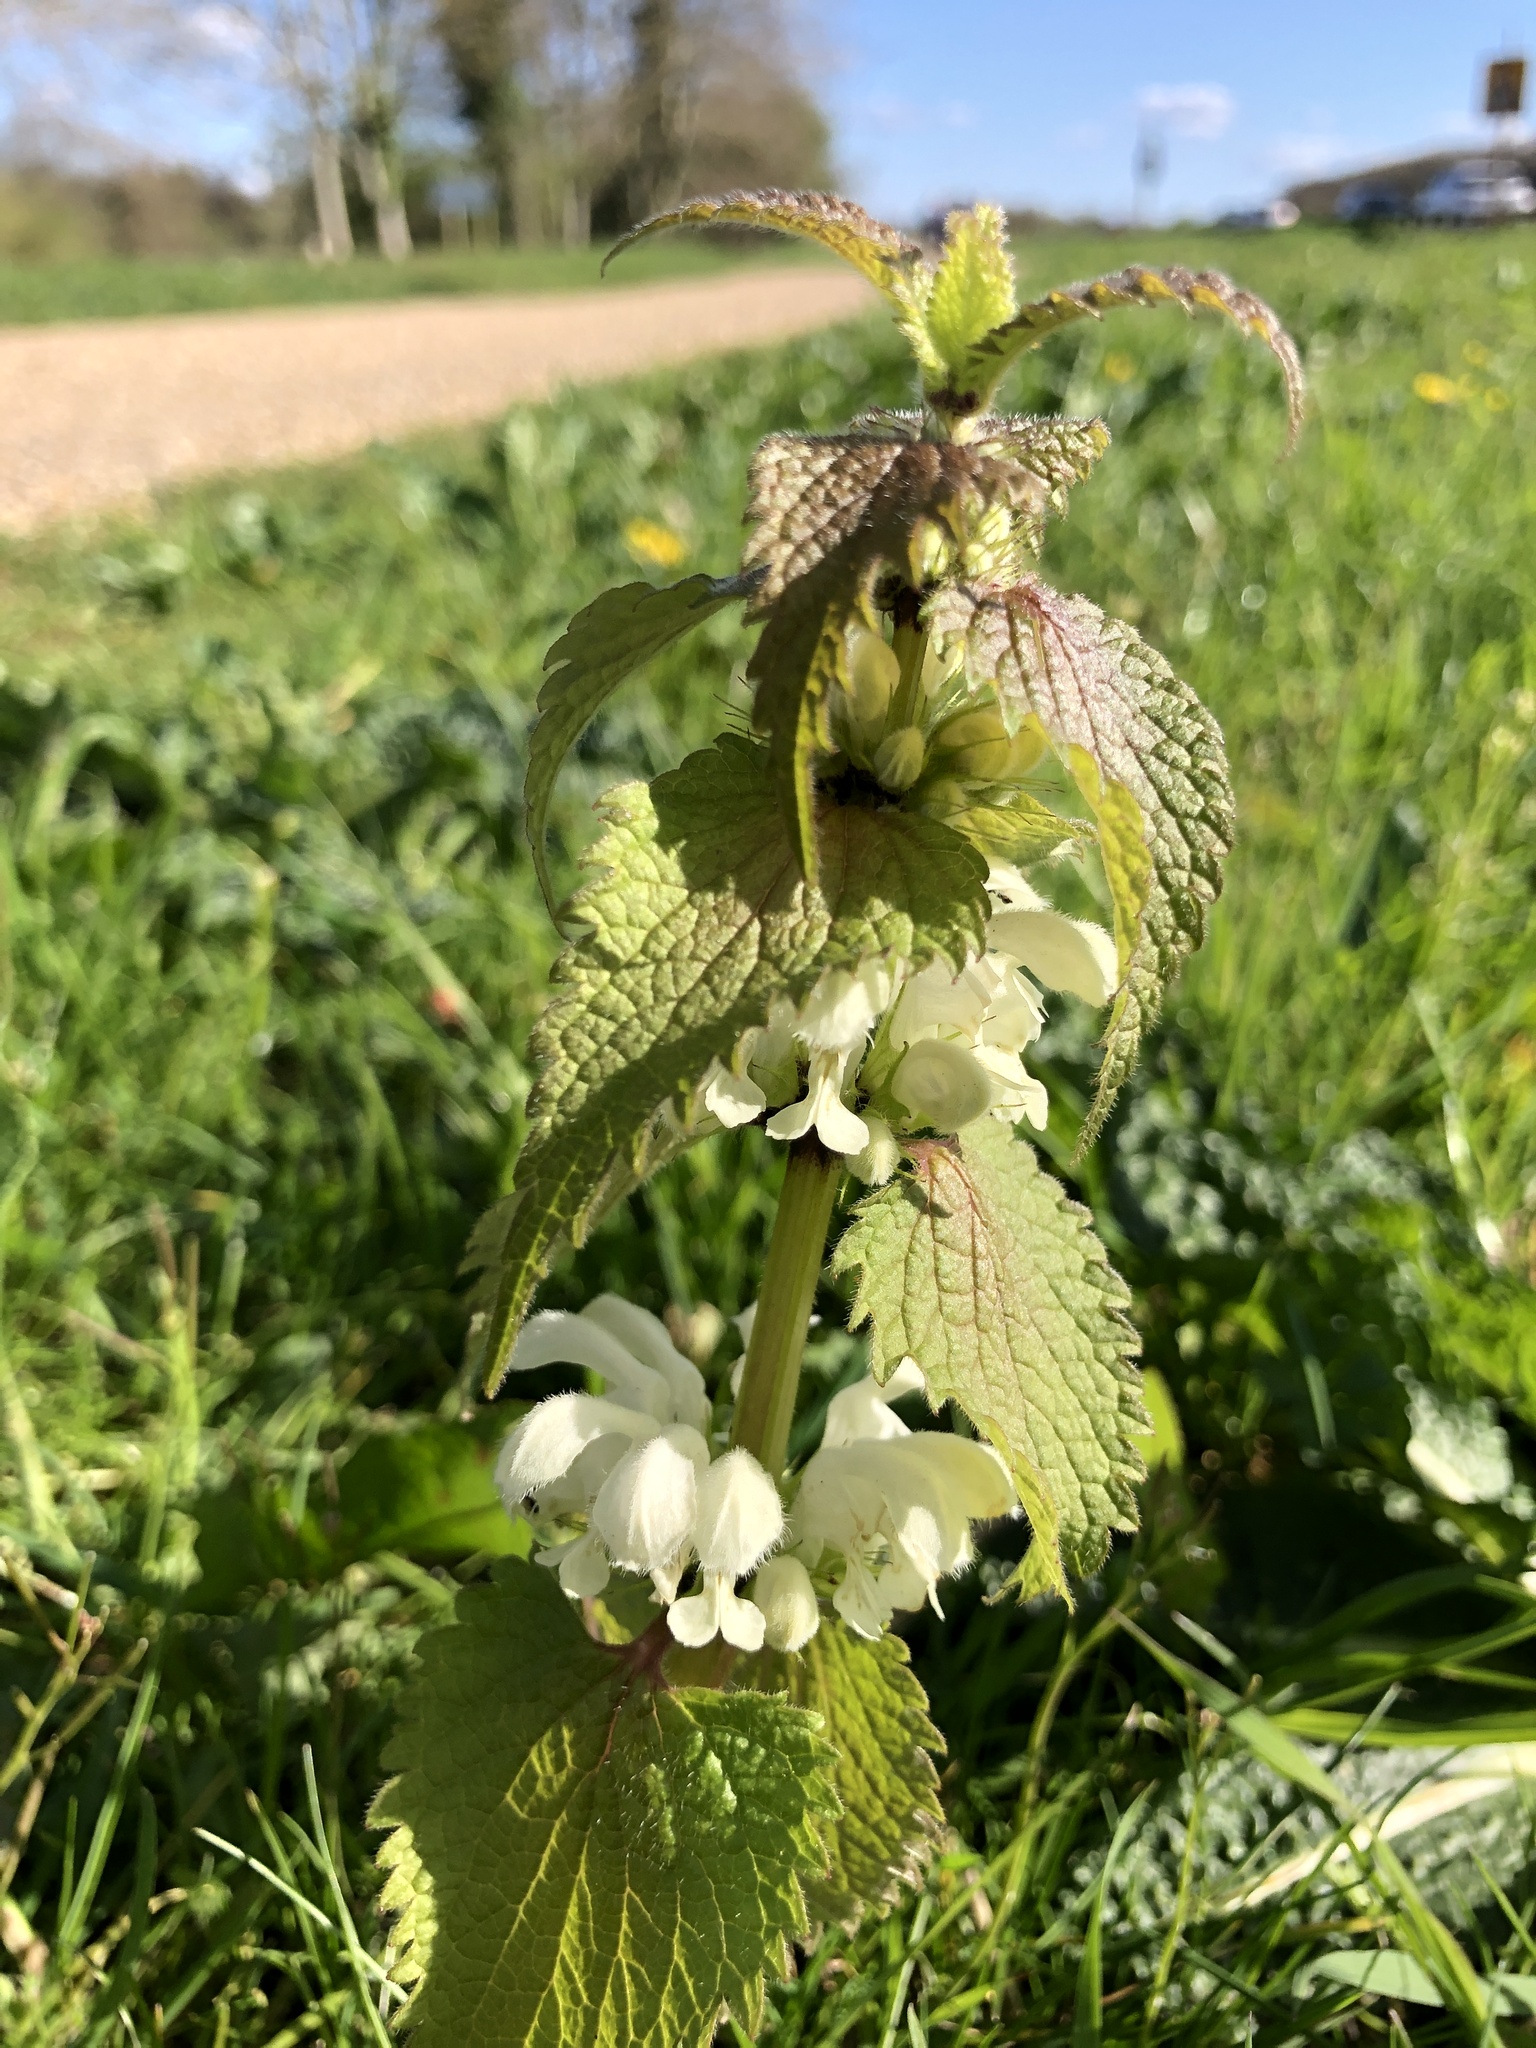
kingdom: Plantae
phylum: Tracheophyta
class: Magnoliopsida
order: Lamiales
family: Lamiaceae
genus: Lamium
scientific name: Lamium album
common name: White dead-nettle
